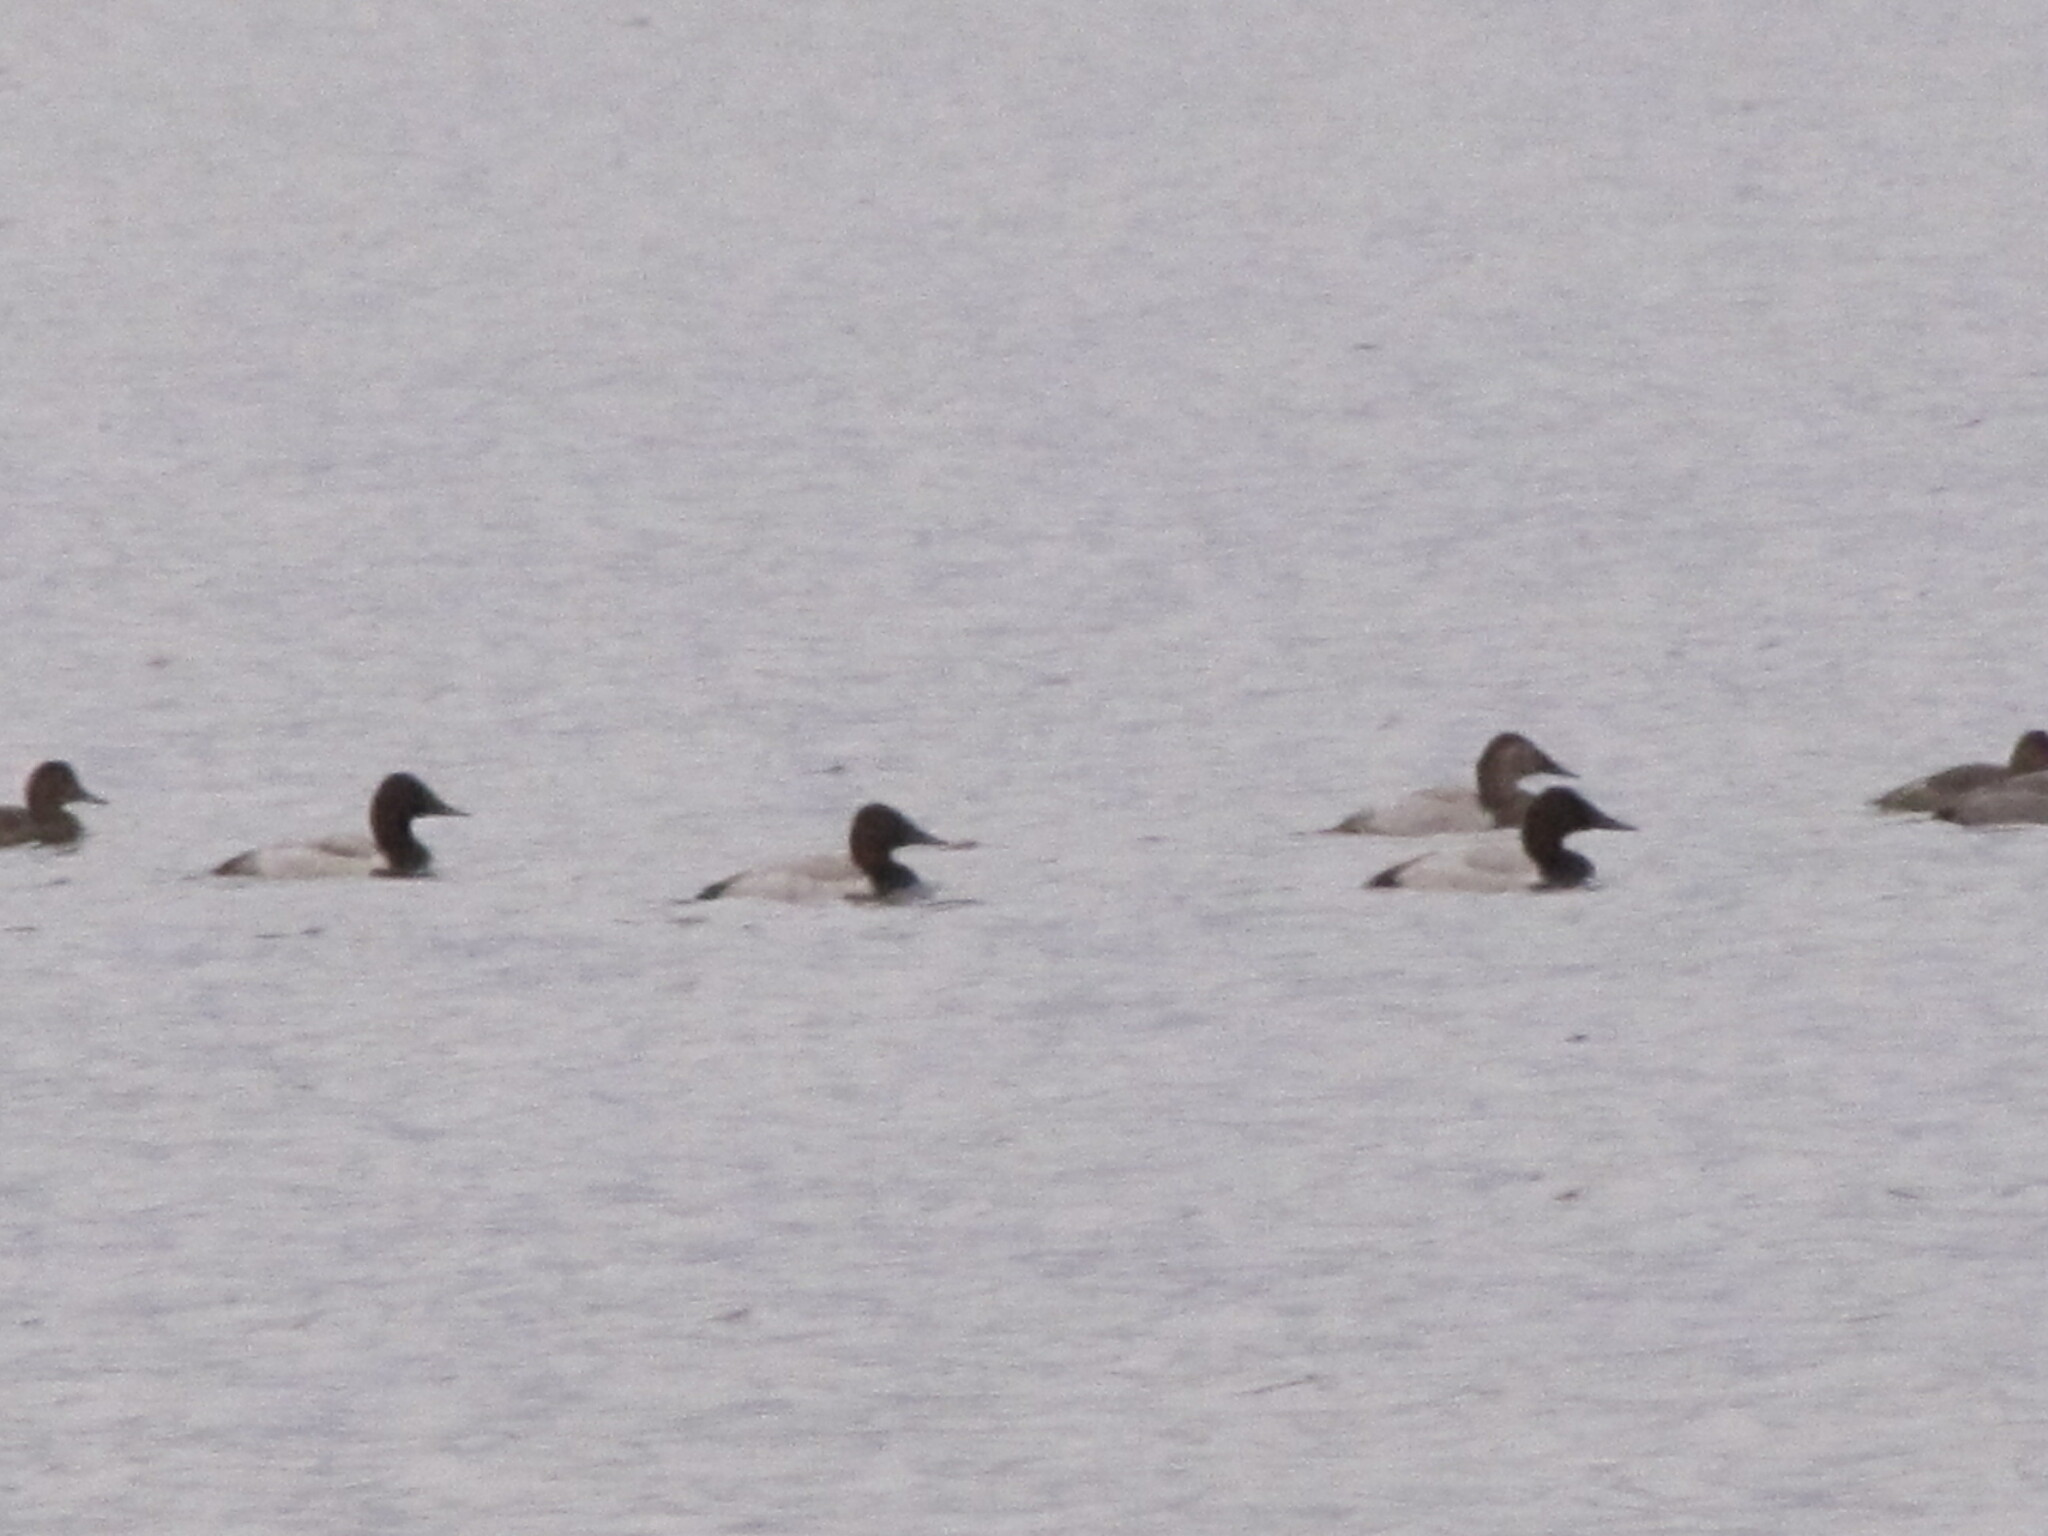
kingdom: Animalia
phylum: Chordata
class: Aves
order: Anseriformes
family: Anatidae
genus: Aythya
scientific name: Aythya valisineria
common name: Canvasback
